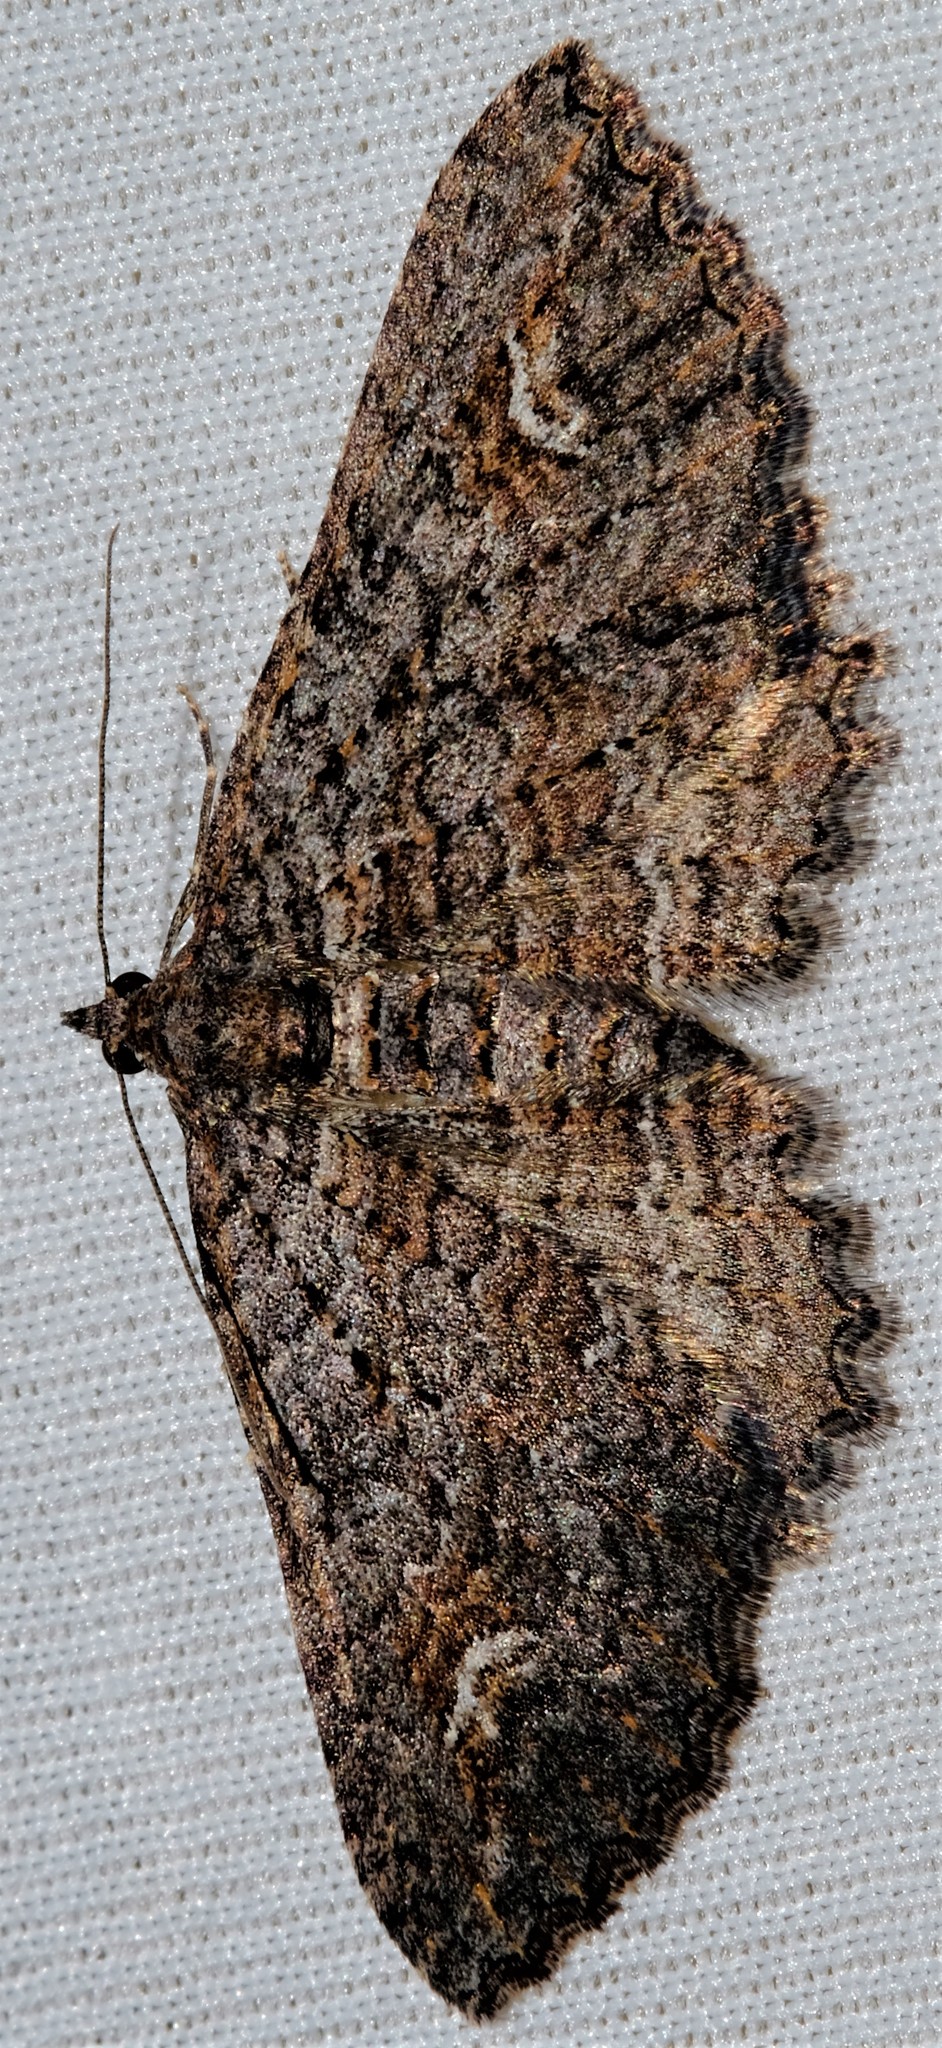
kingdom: Animalia
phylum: Arthropoda
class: Insecta
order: Lepidoptera
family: Geometridae
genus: Eupithecia
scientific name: Eupithecia Eucymatoge scotodes
